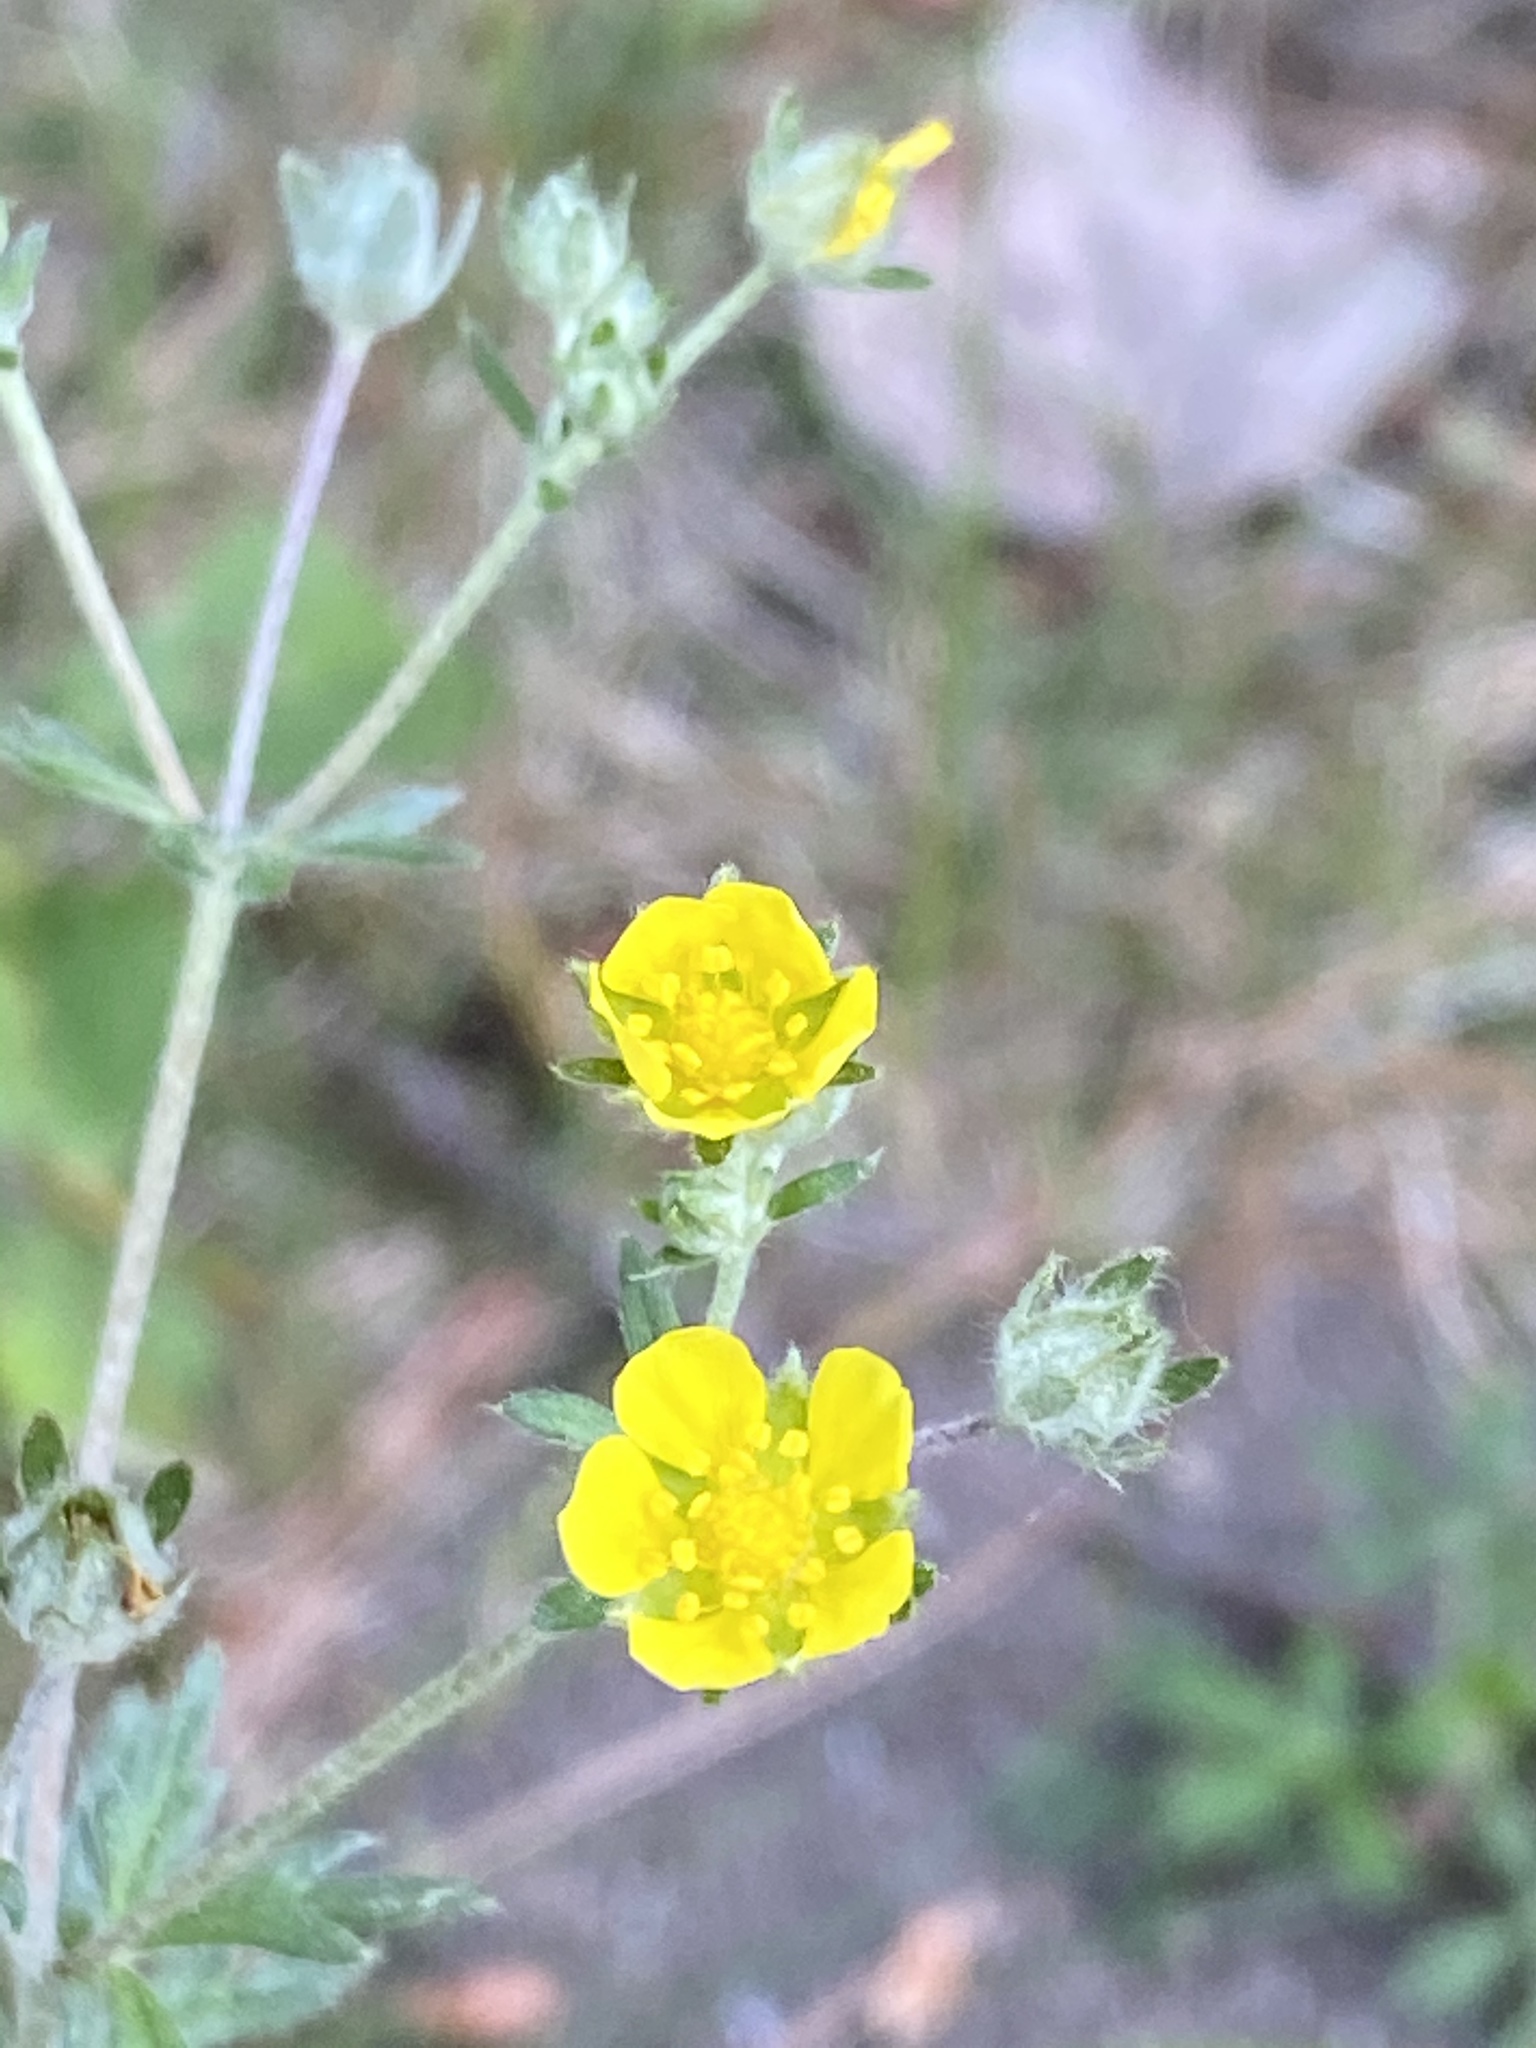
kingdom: Plantae
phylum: Tracheophyta
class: Magnoliopsida
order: Rosales
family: Rosaceae
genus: Potentilla
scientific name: Potentilla argentea
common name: Hoary cinquefoil
